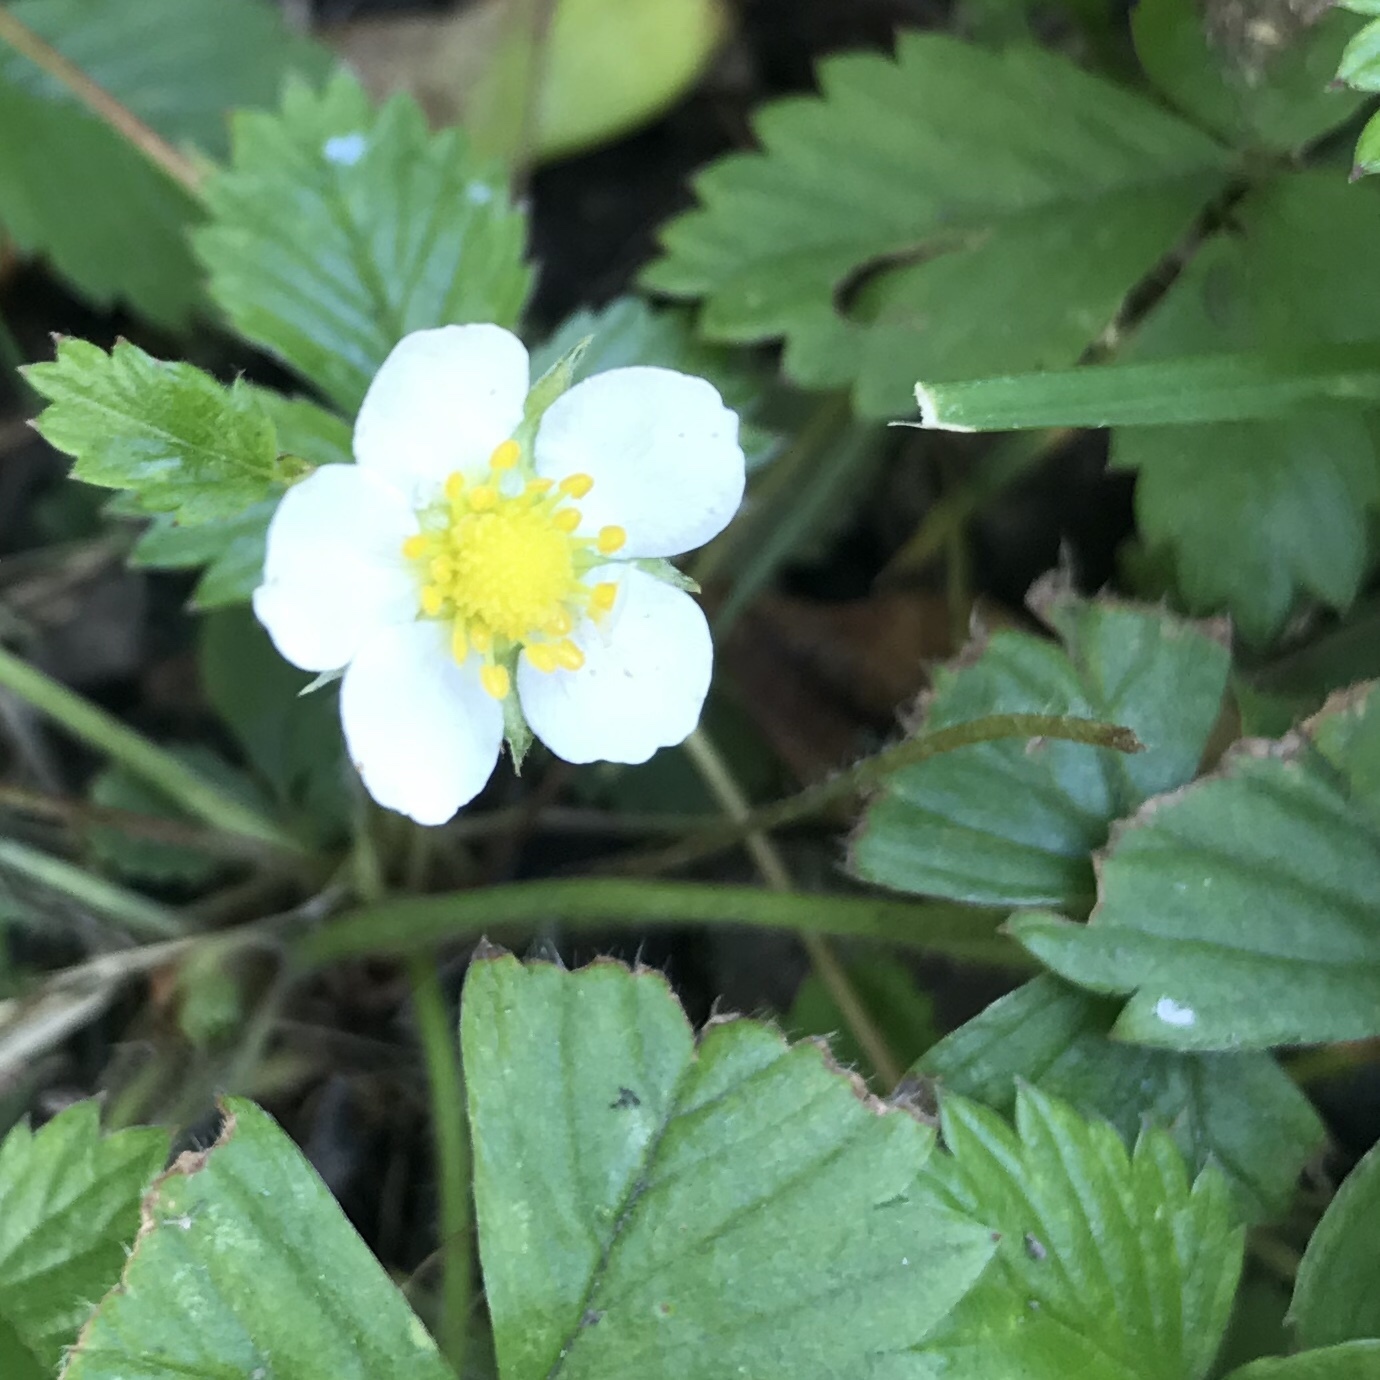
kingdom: Plantae
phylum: Tracheophyta
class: Magnoliopsida
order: Rosales
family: Rosaceae
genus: Fragaria
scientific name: Fragaria vesca
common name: Wild strawberry
